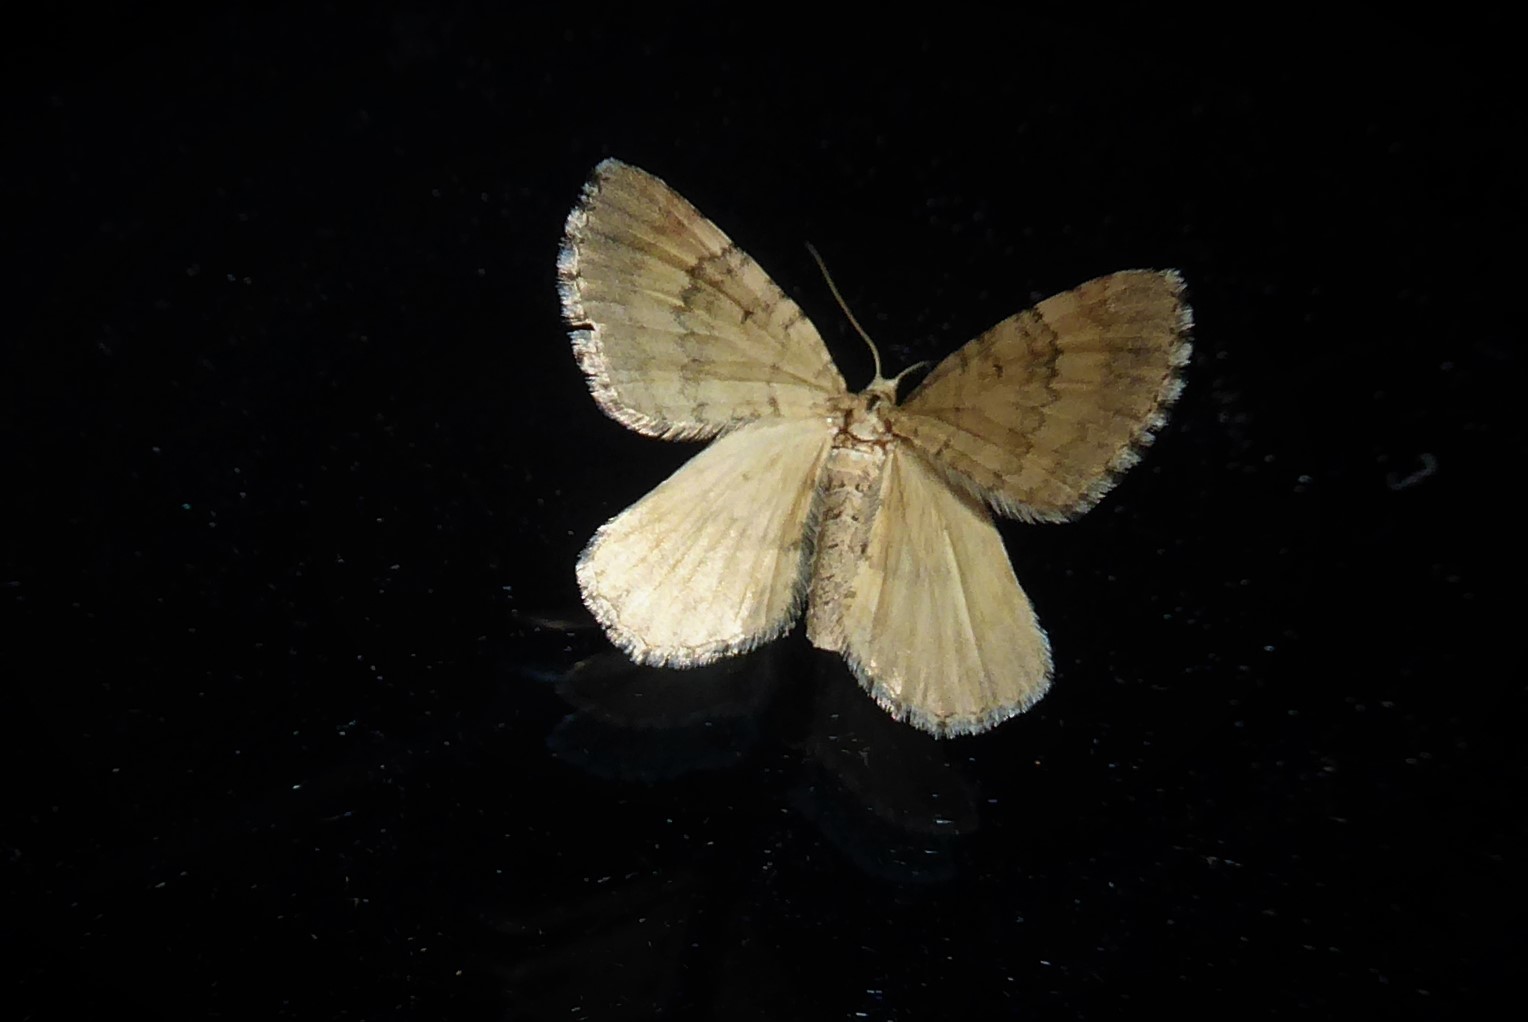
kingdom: Animalia
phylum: Arthropoda
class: Insecta
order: Lepidoptera
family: Geometridae
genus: Asaphodes
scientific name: Asaphodes aegrota
